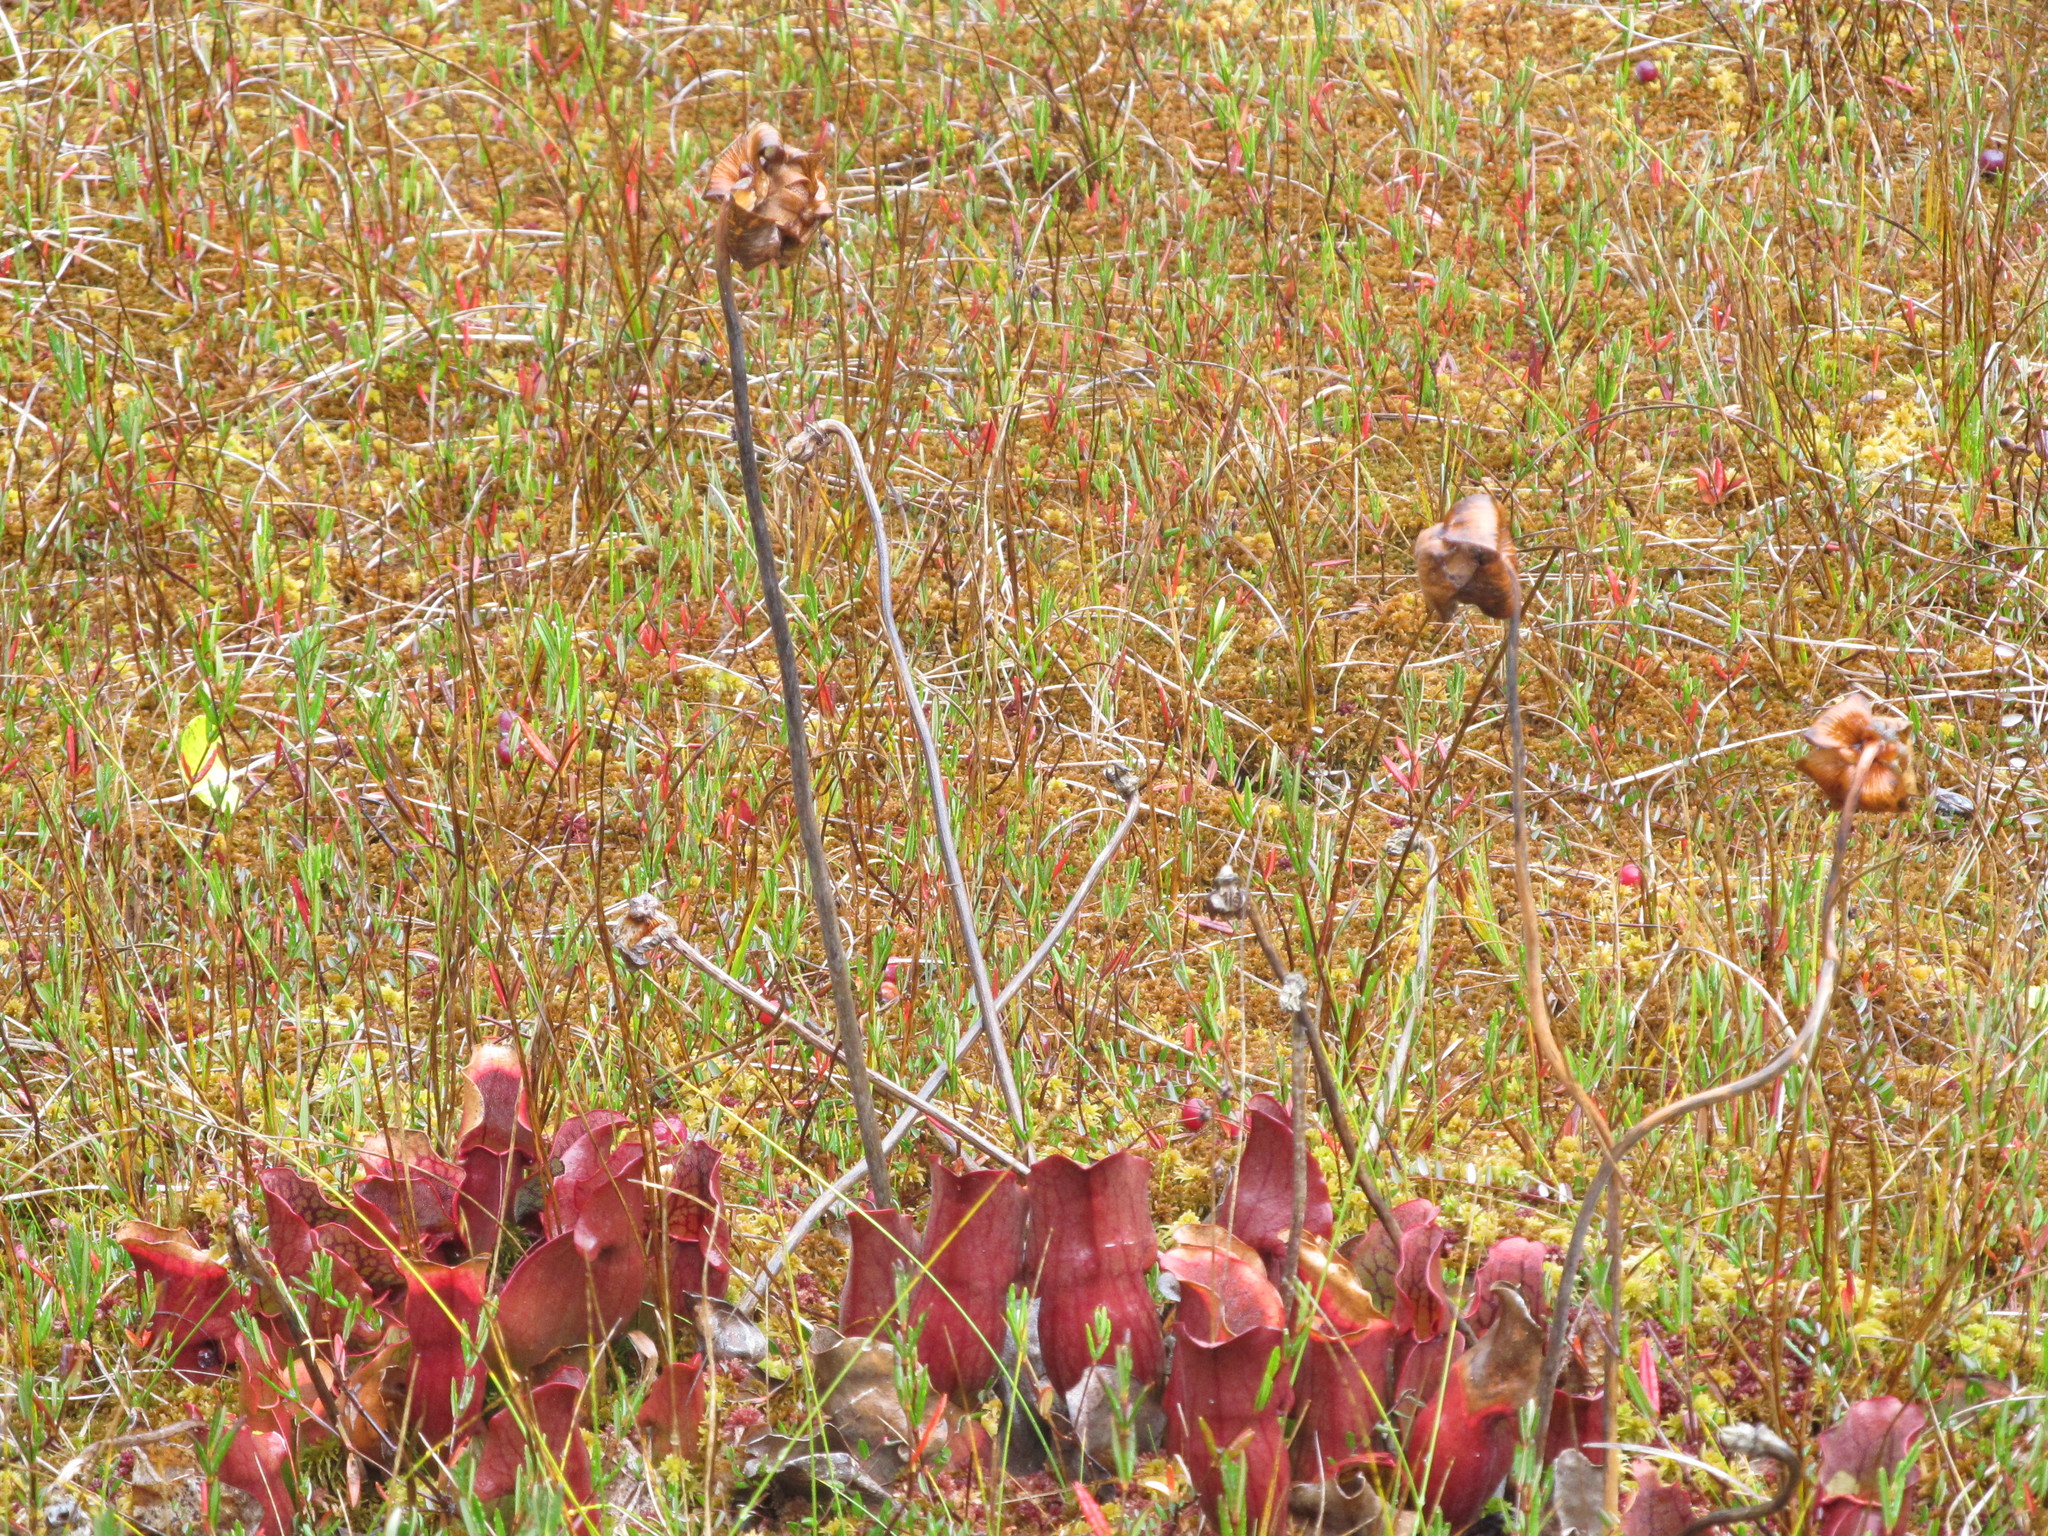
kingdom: Plantae
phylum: Tracheophyta
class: Magnoliopsida
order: Ericales
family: Sarraceniaceae
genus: Sarracenia
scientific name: Sarracenia purpurea
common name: Pitcherplant
